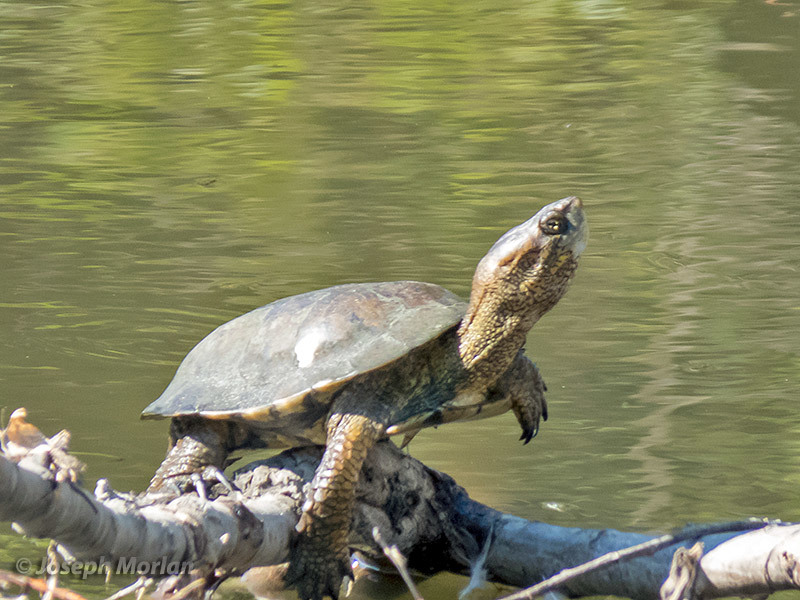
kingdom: Animalia
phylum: Chordata
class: Testudines
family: Emydidae
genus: Actinemys
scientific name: Actinemys pallida
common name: Southern pacific pond turtle
